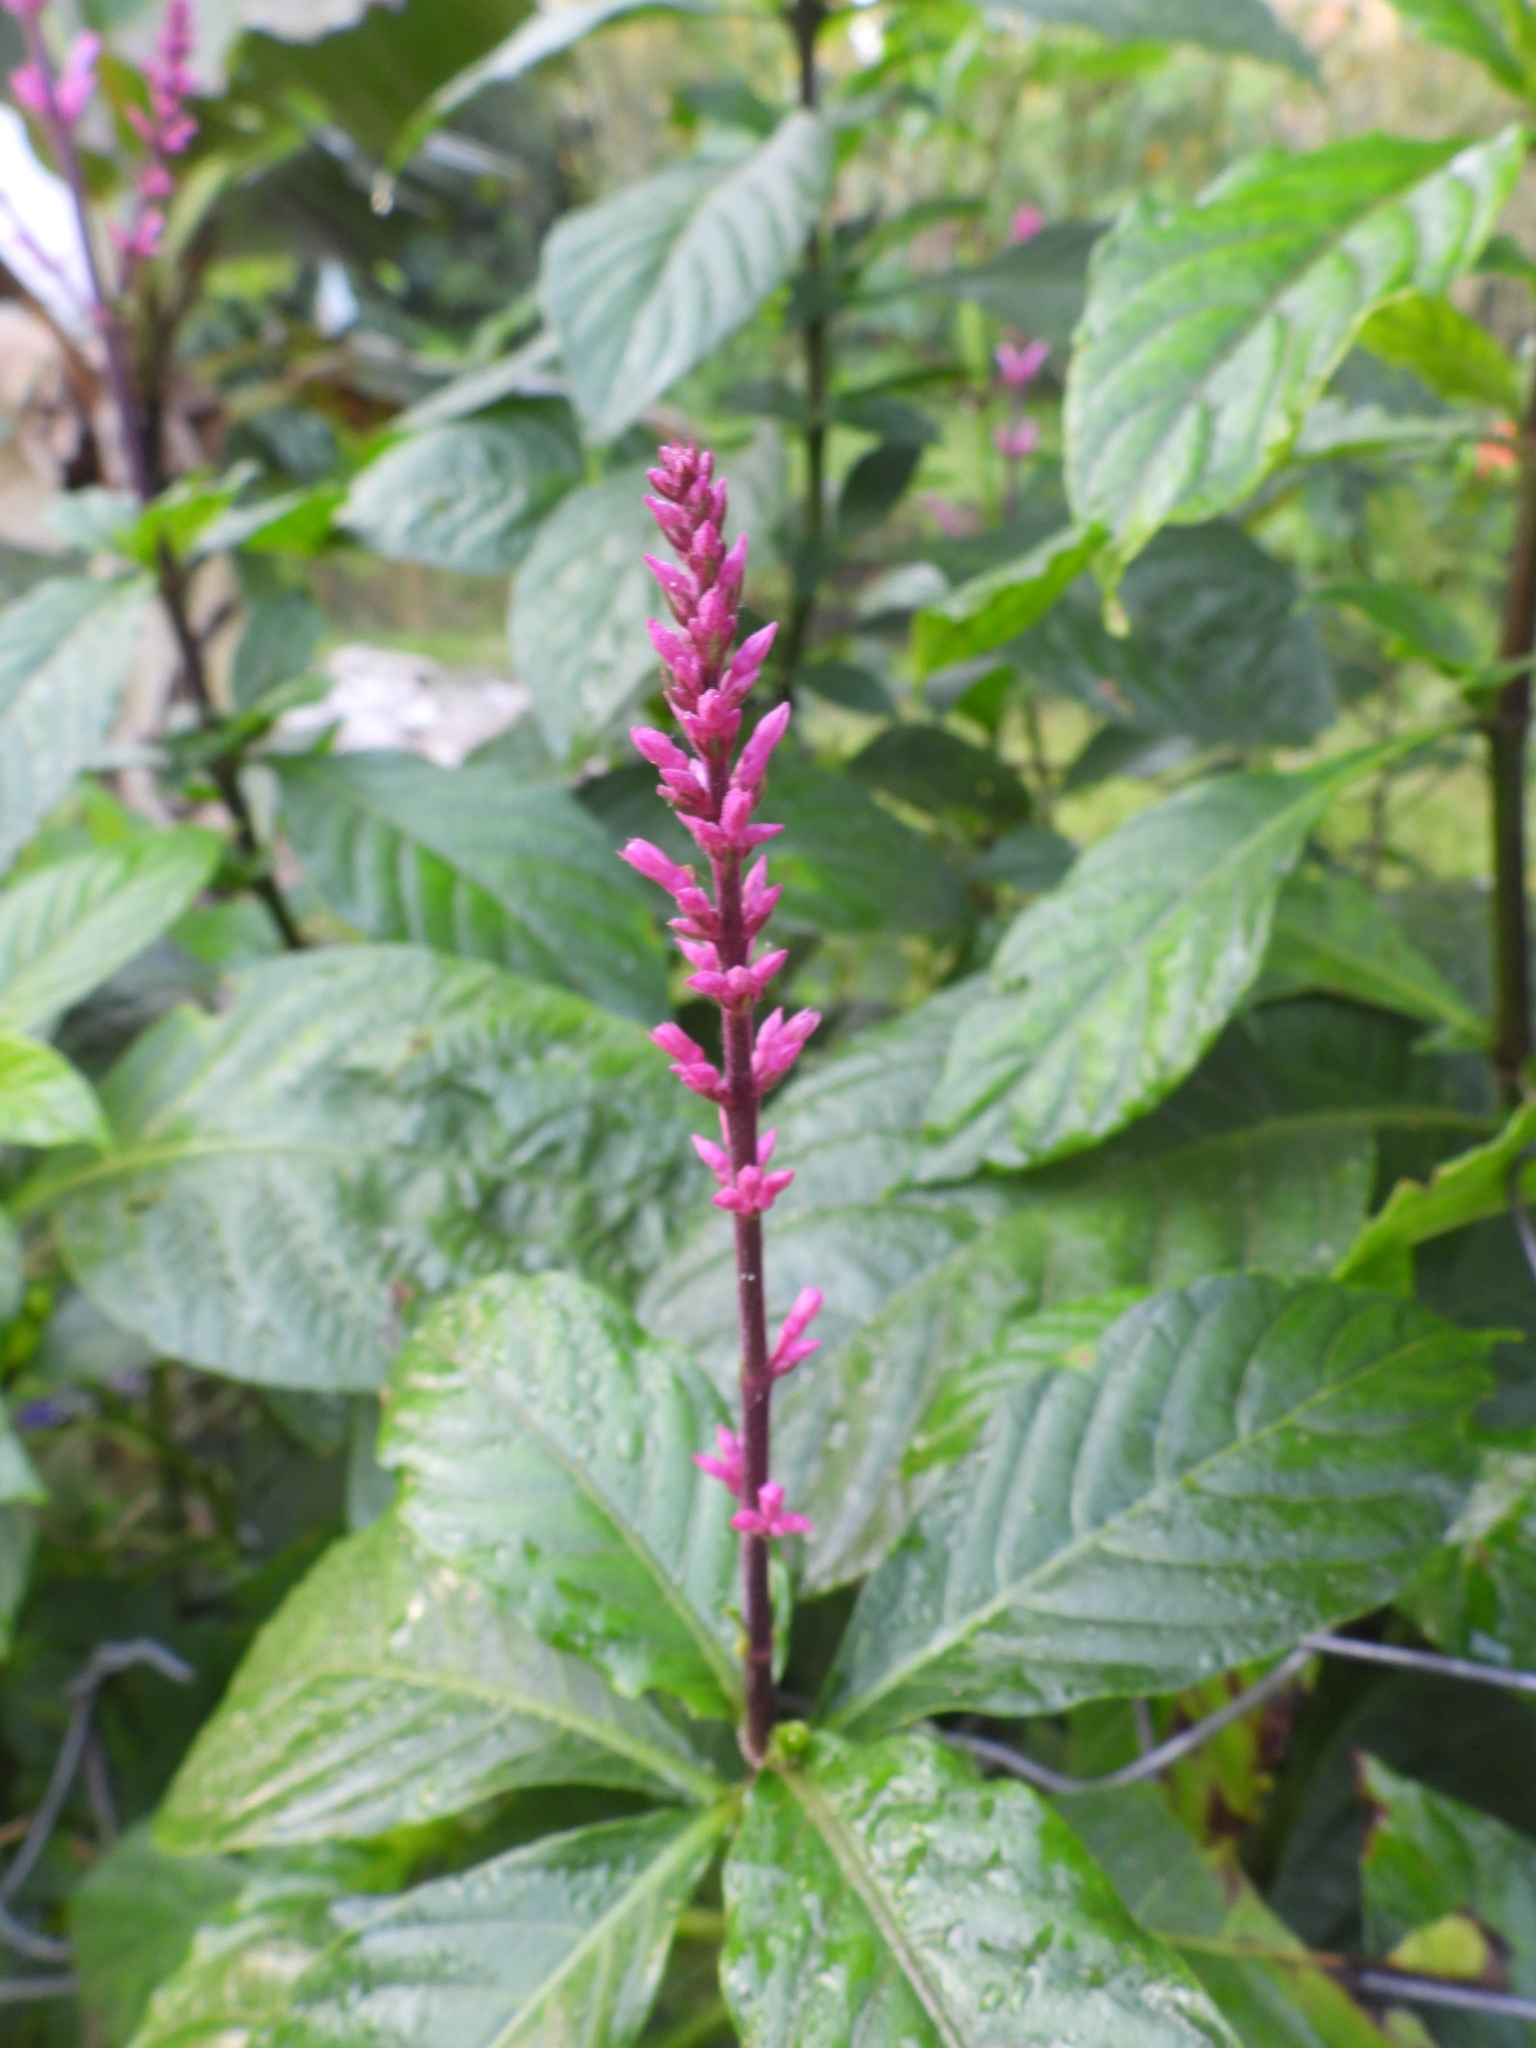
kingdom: Plantae
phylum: Tracheophyta
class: Magnoliopsida
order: Lamiales
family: Acanthaceae
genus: Odontonema
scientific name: Odontonema callistachyum
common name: Firespike
